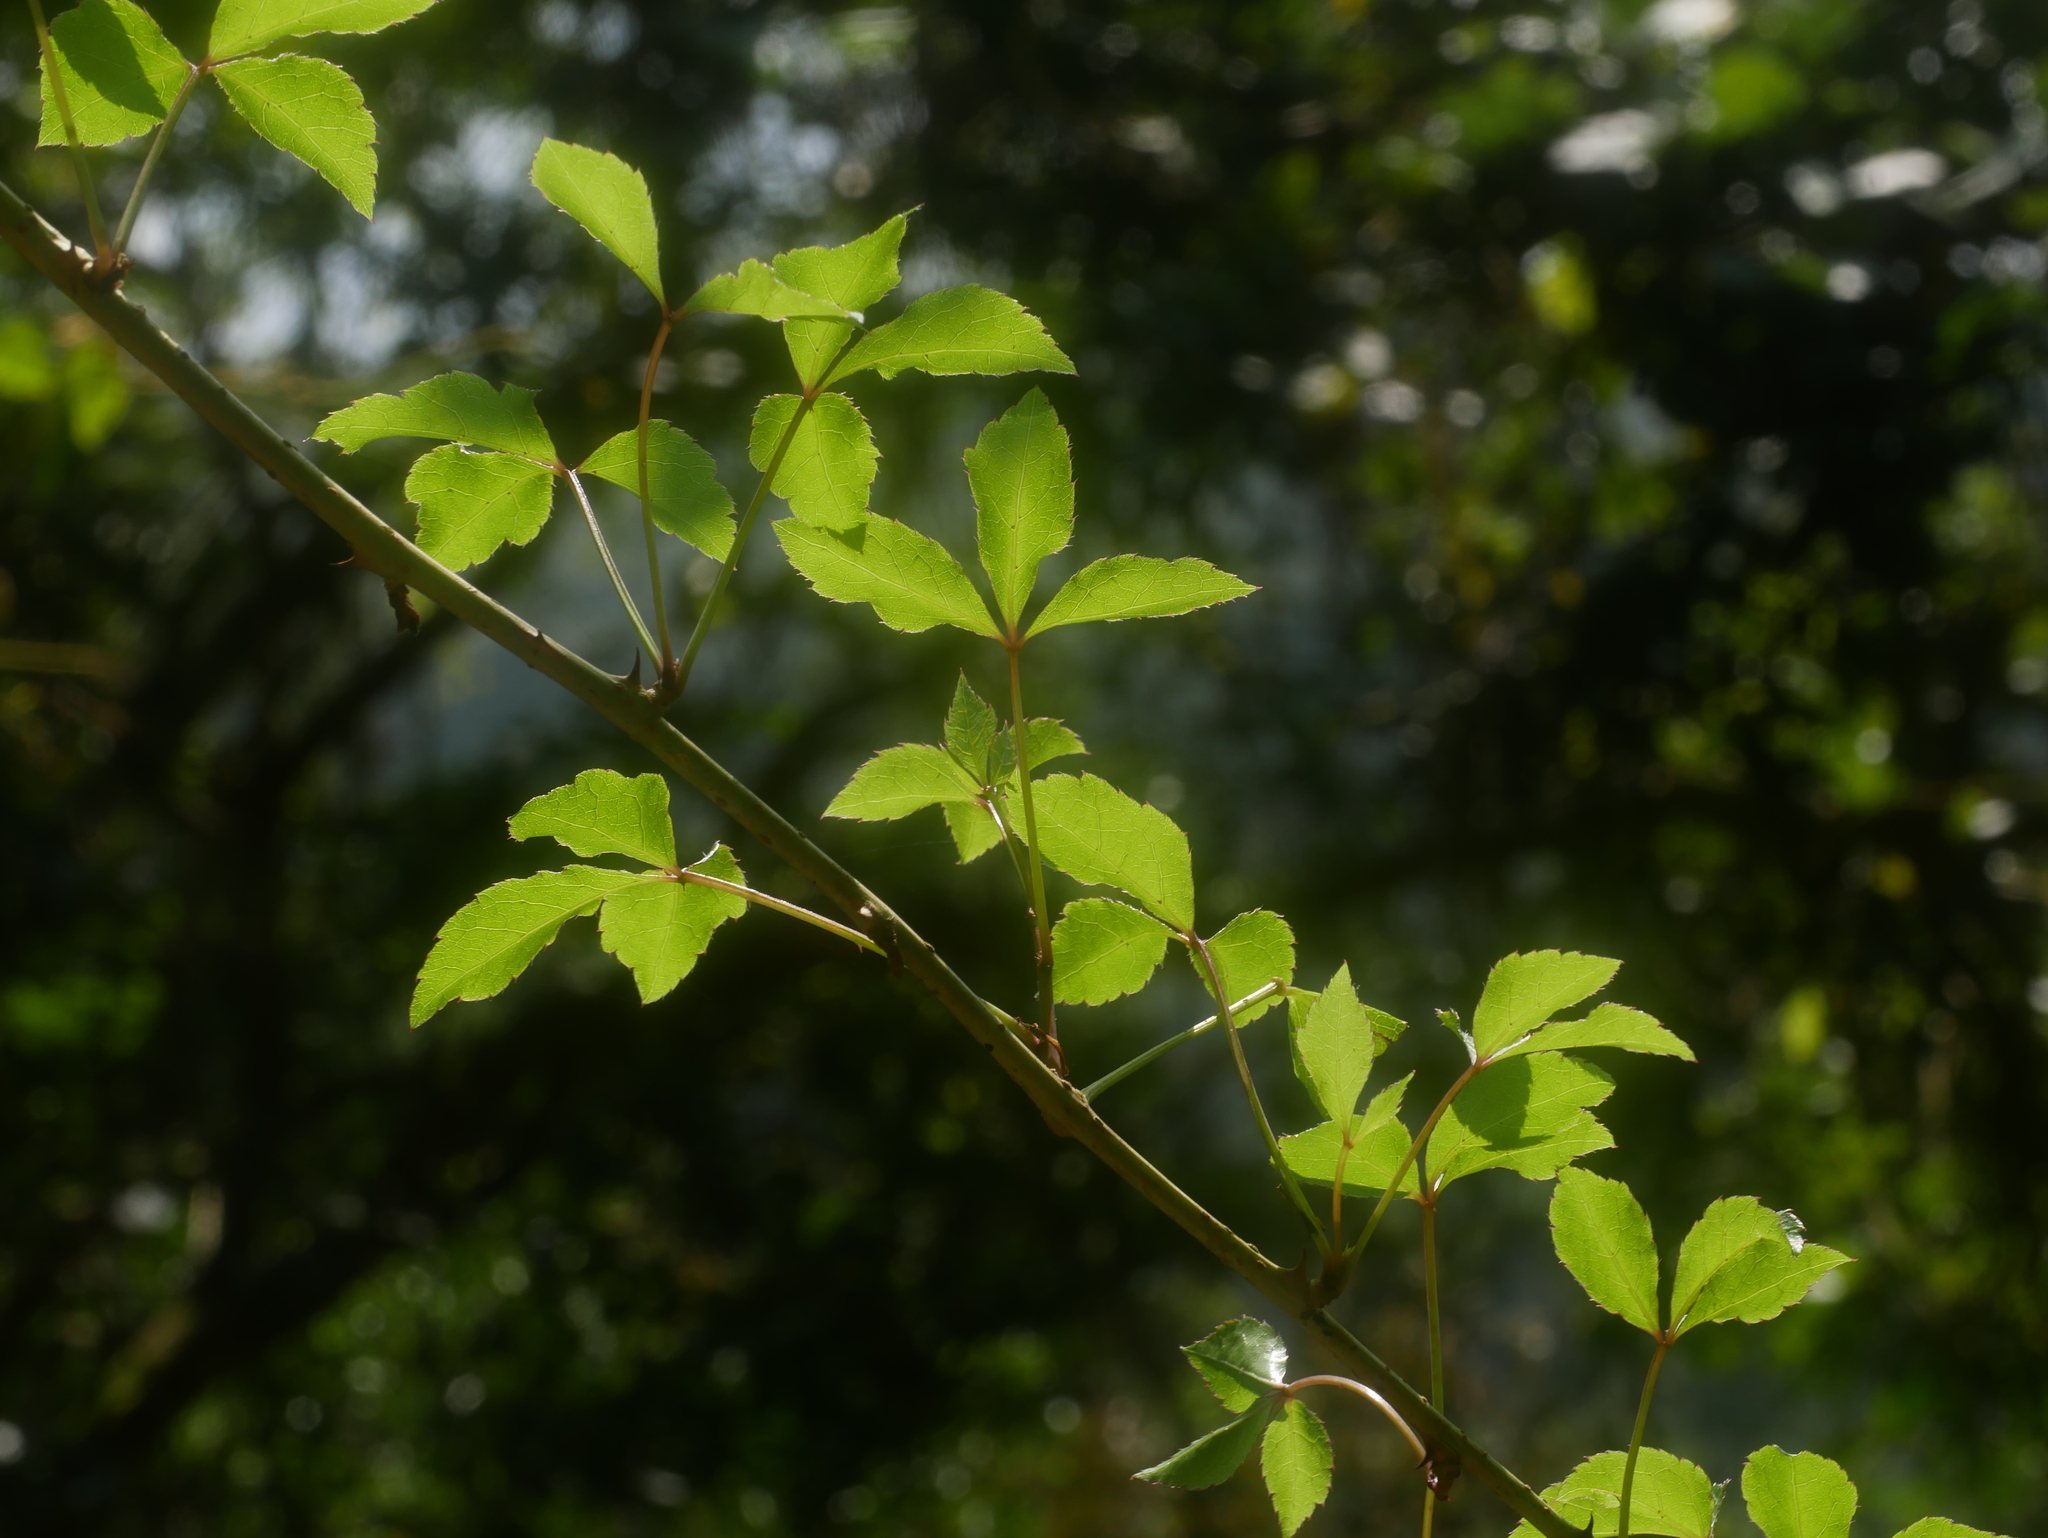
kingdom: Plantae
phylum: Tracheophyta
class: Magnoliopsida
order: Apiales
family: Araliaceae
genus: Eleutherococcus
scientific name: Eleutherococcus trifoliatus
